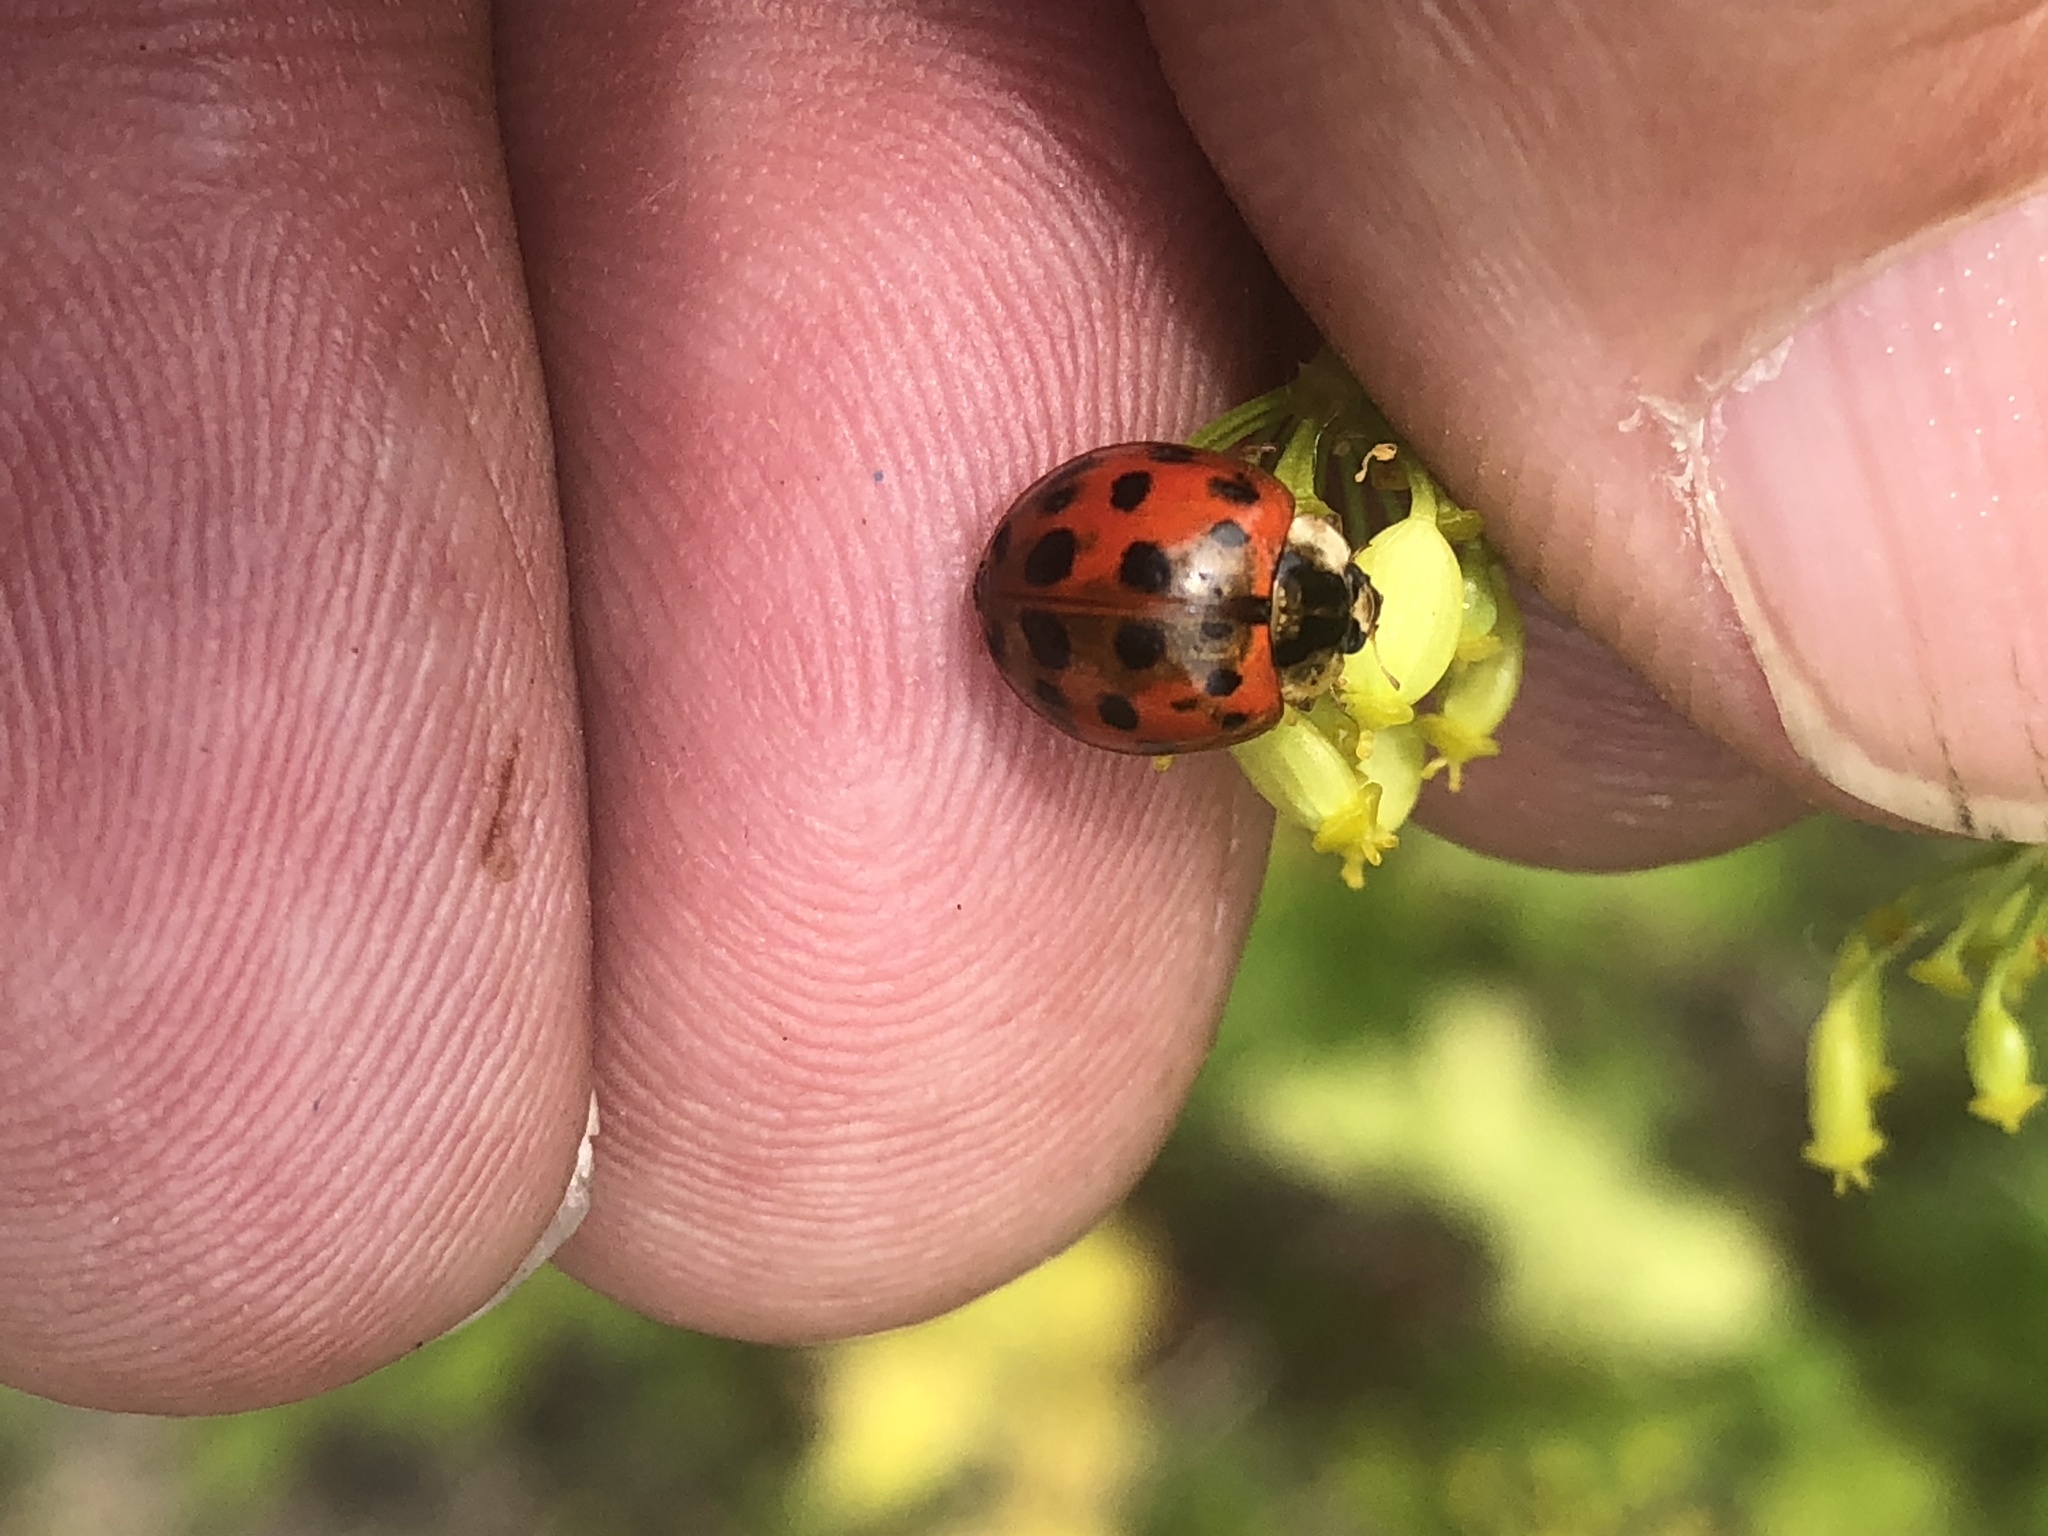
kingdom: Animalia
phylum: Arthropoda
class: Insecta
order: Coleoptera
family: Coccinellidae
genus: Harmonia
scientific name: Harmonia axyridis
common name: Harlequin ladybird
